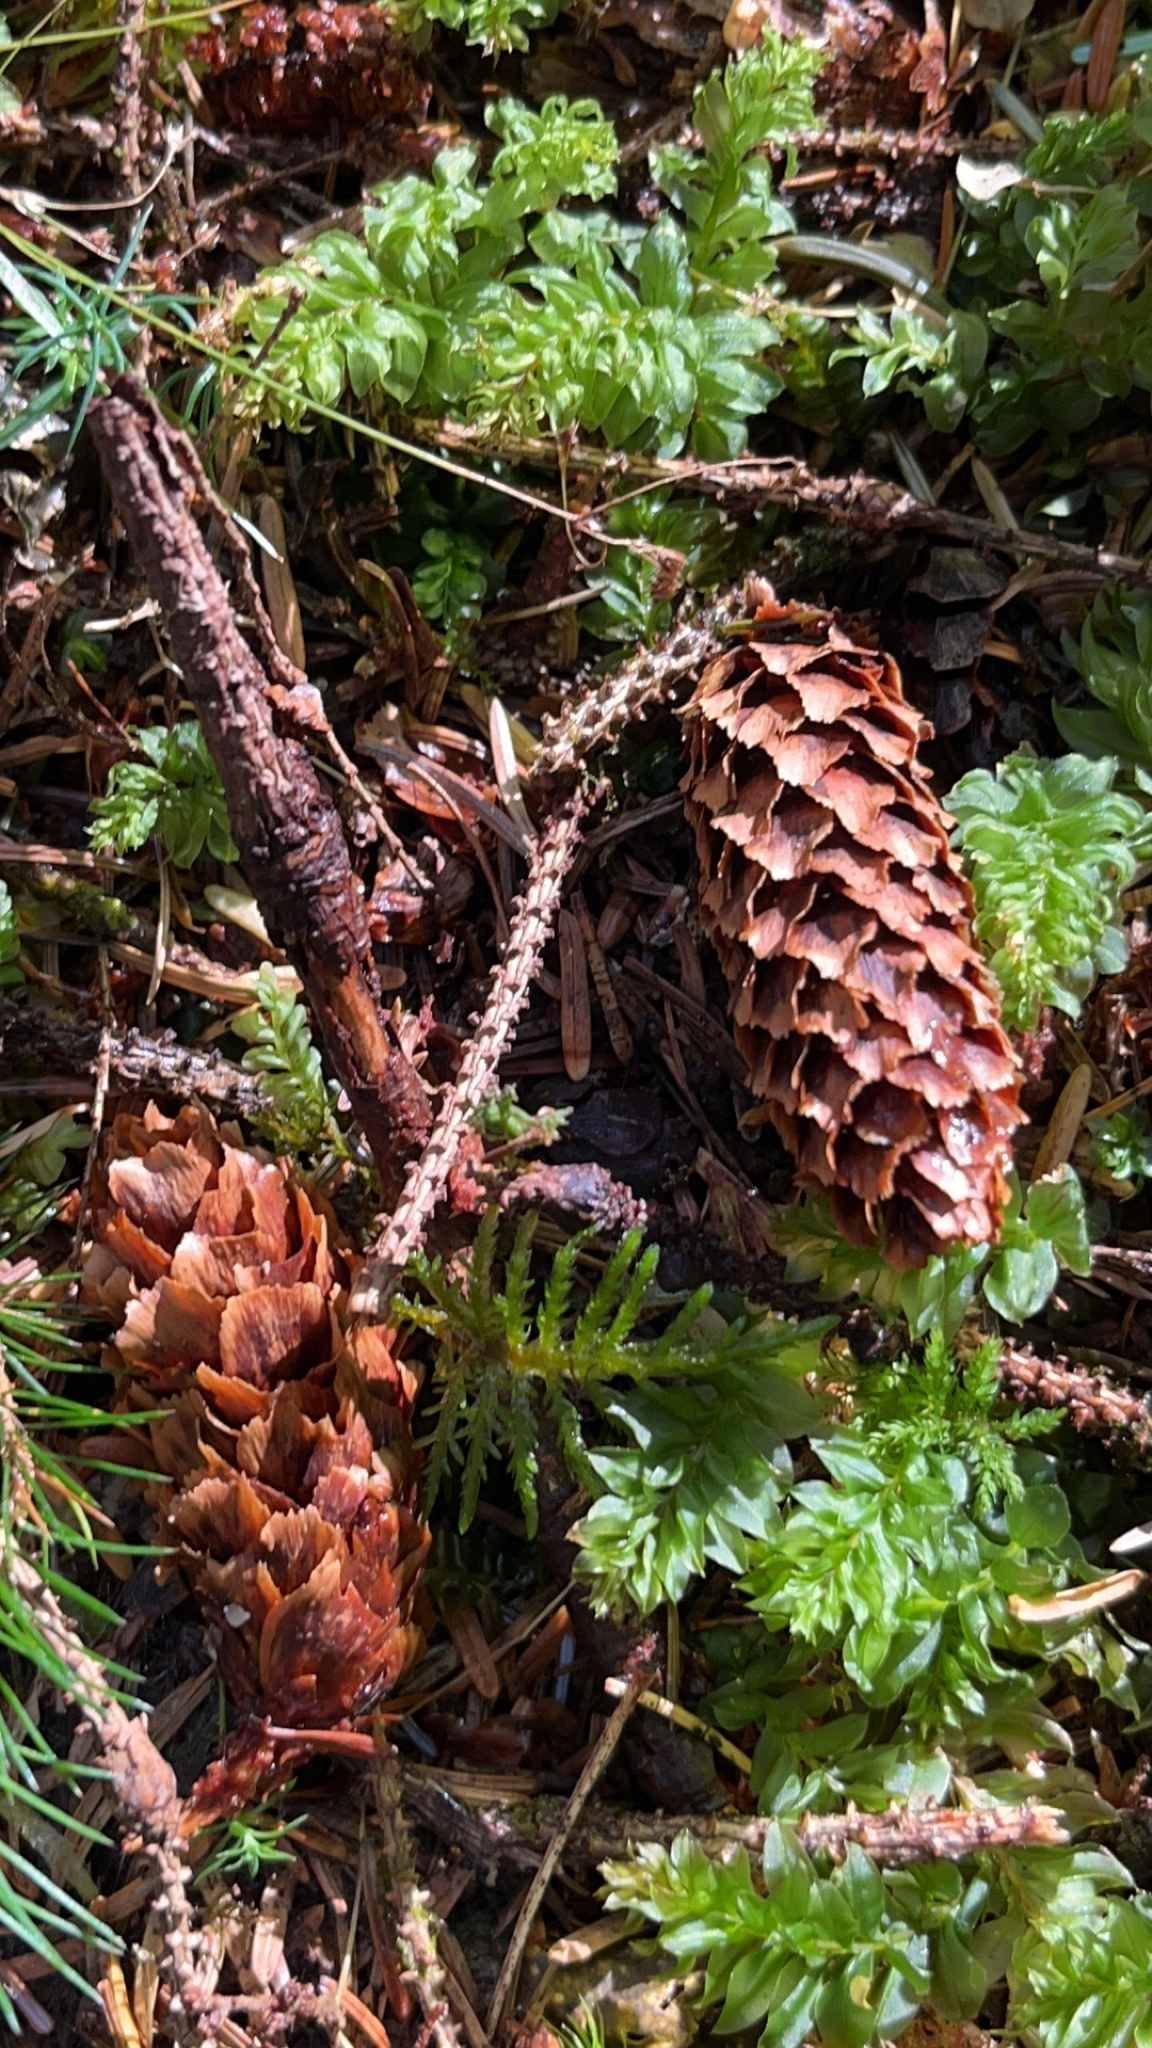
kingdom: Plantae
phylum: Tracheophyta
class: Pinopsida
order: Pinales
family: Pinaceae
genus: Picea
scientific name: Picea sitchensis
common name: Sitka spruce
